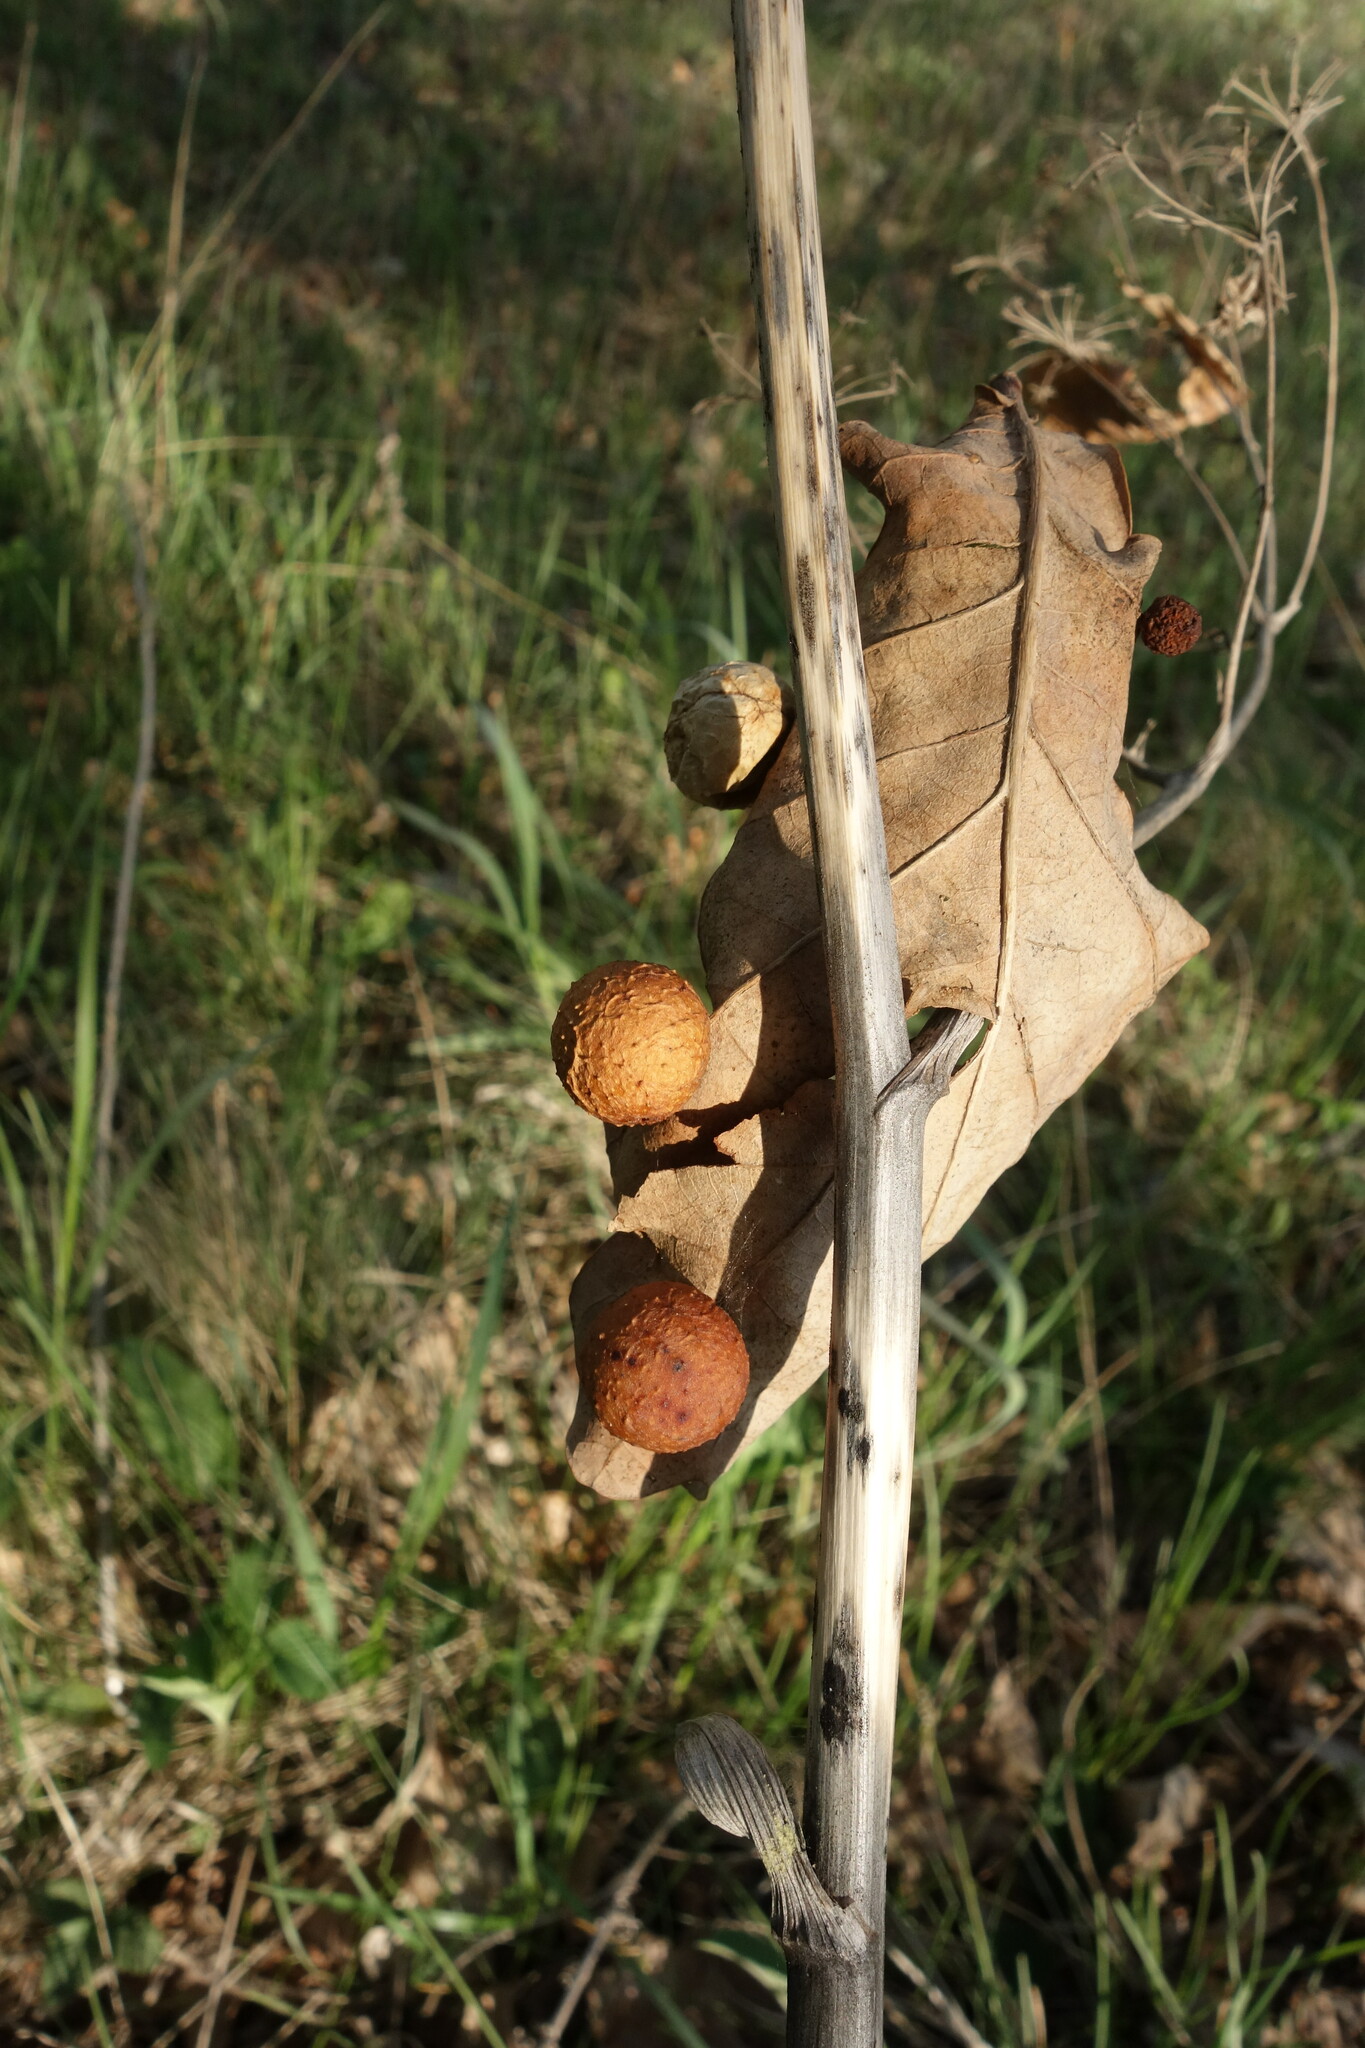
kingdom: Animalia
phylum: Arthropoda
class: Insecta
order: Hymenoptera
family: Cynipidae
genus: Cynips
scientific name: Cynips quercusfolii
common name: Cherry gall
